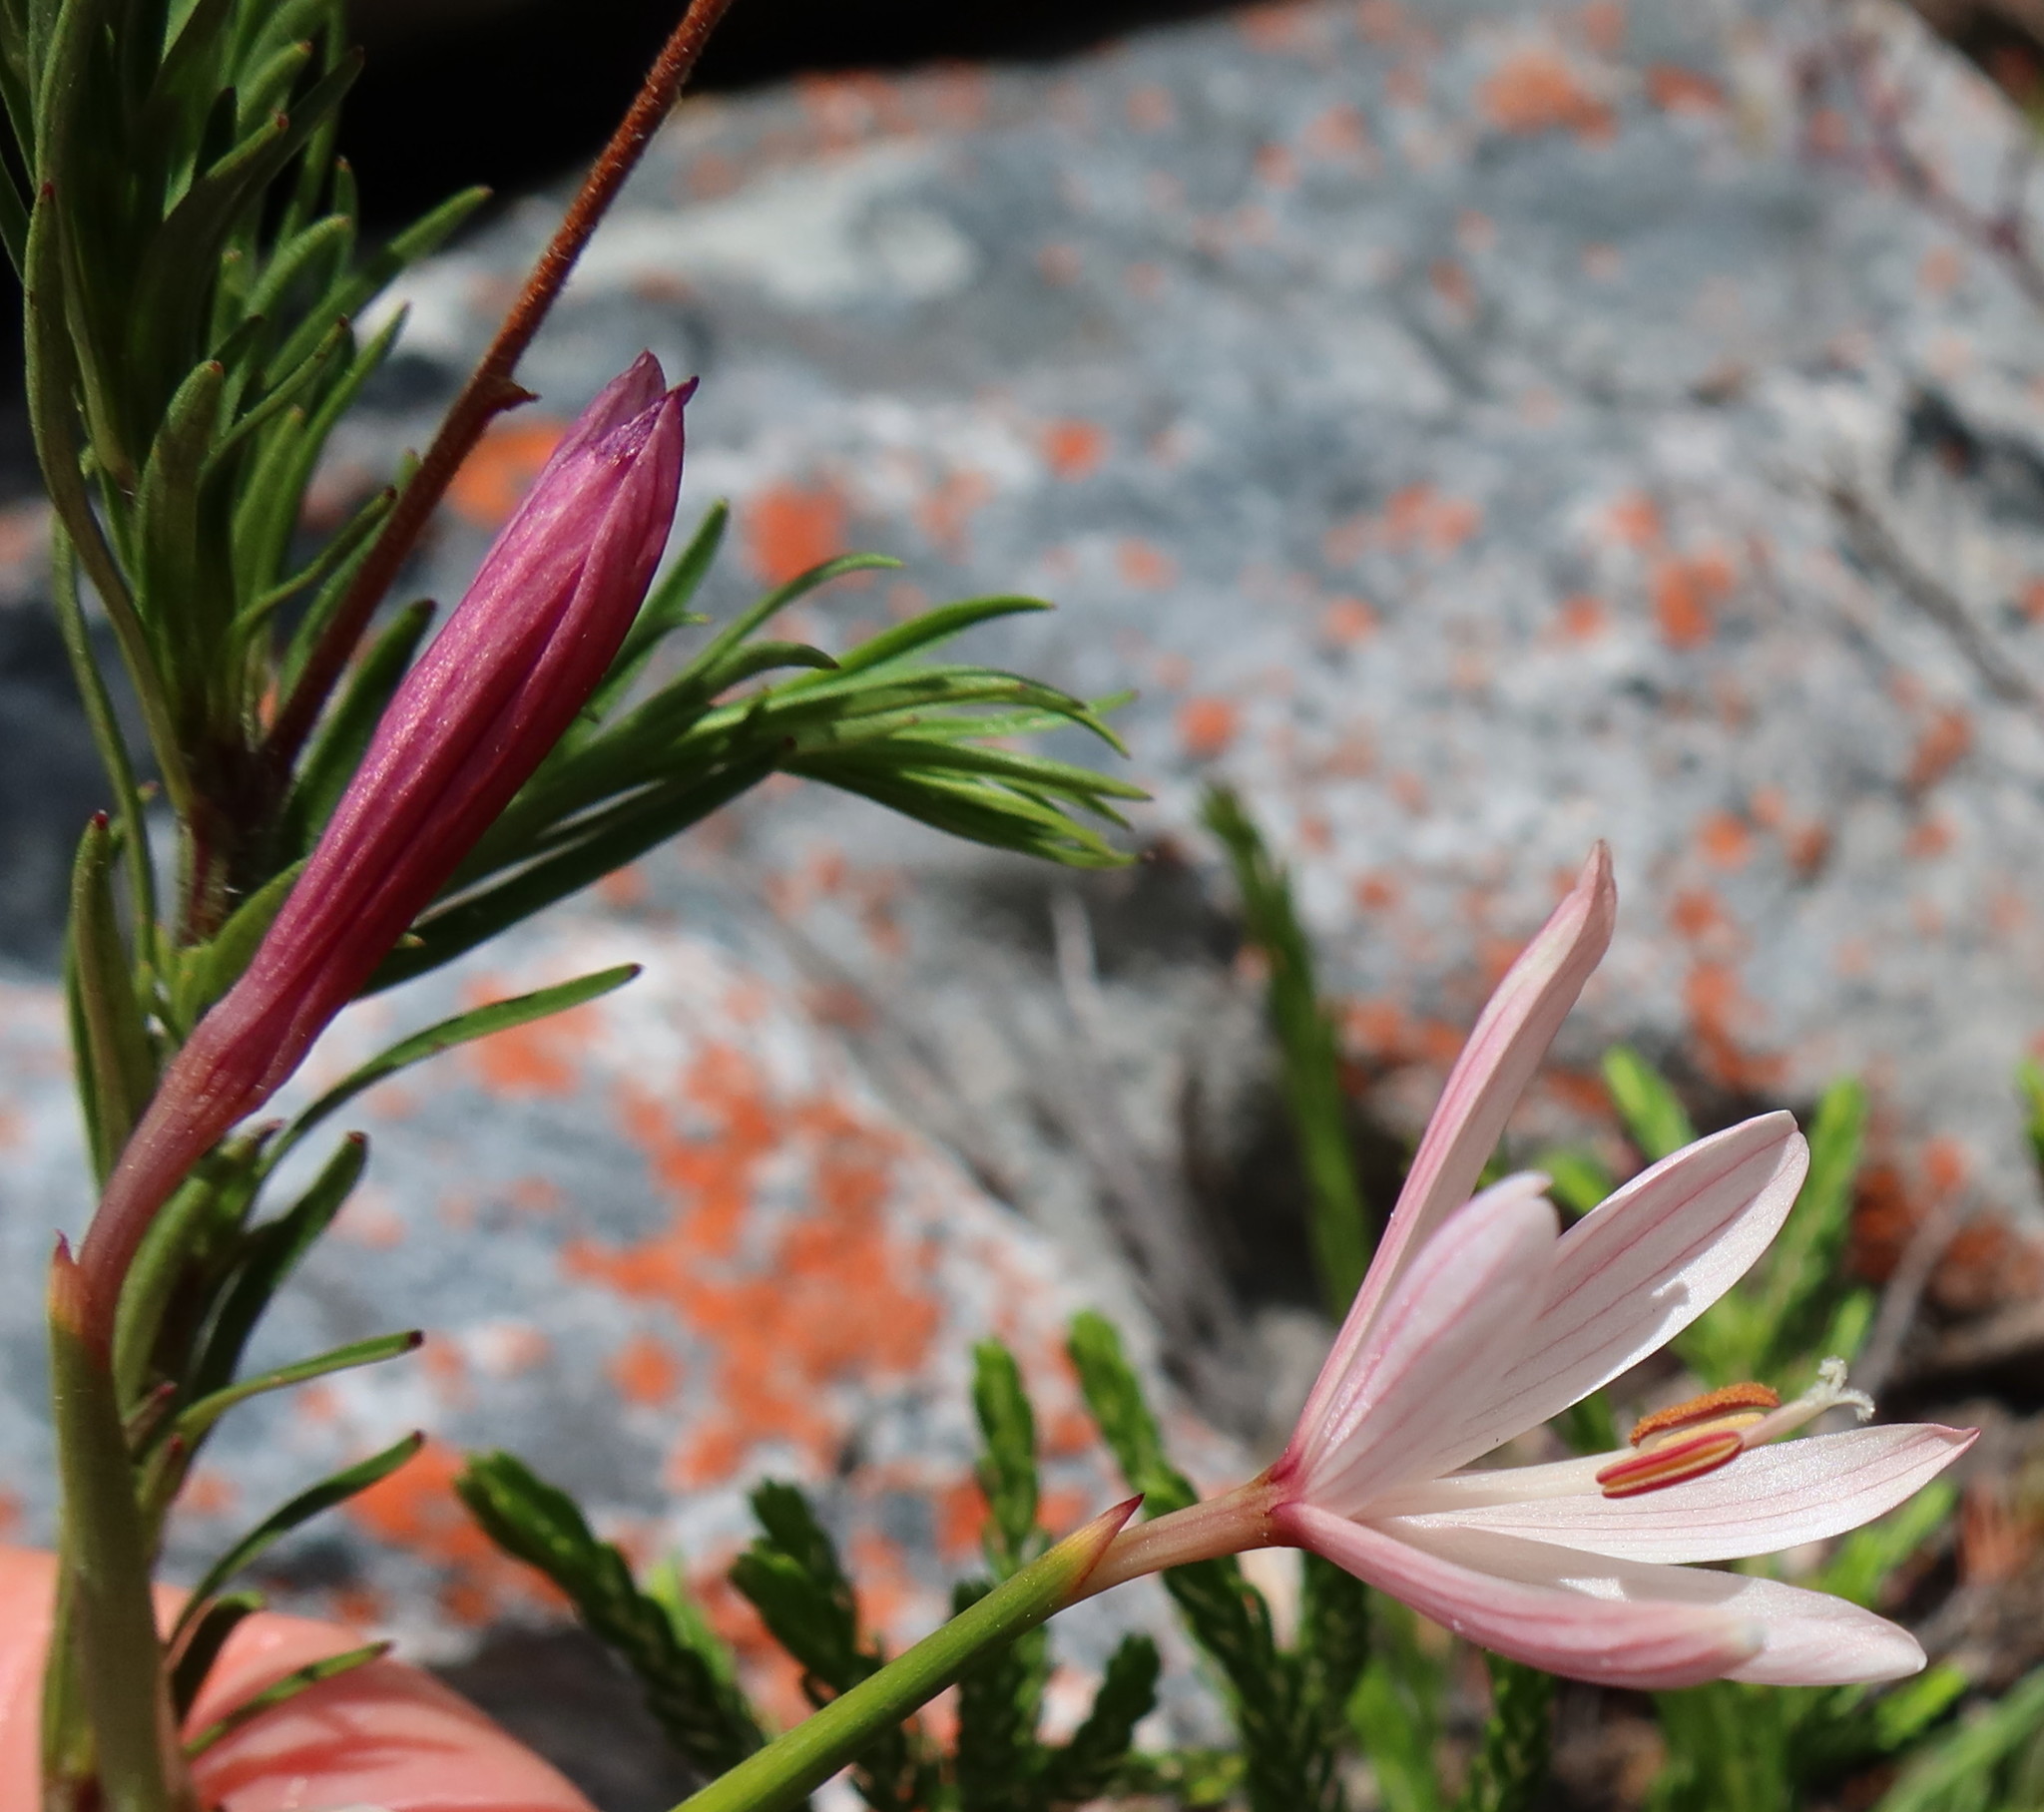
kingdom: Plantae
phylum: Tracheophyta
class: Liliopsida
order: Asparagales
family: Iridaceae
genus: Geissorhiza
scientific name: Geissorhiza bonae-spei
